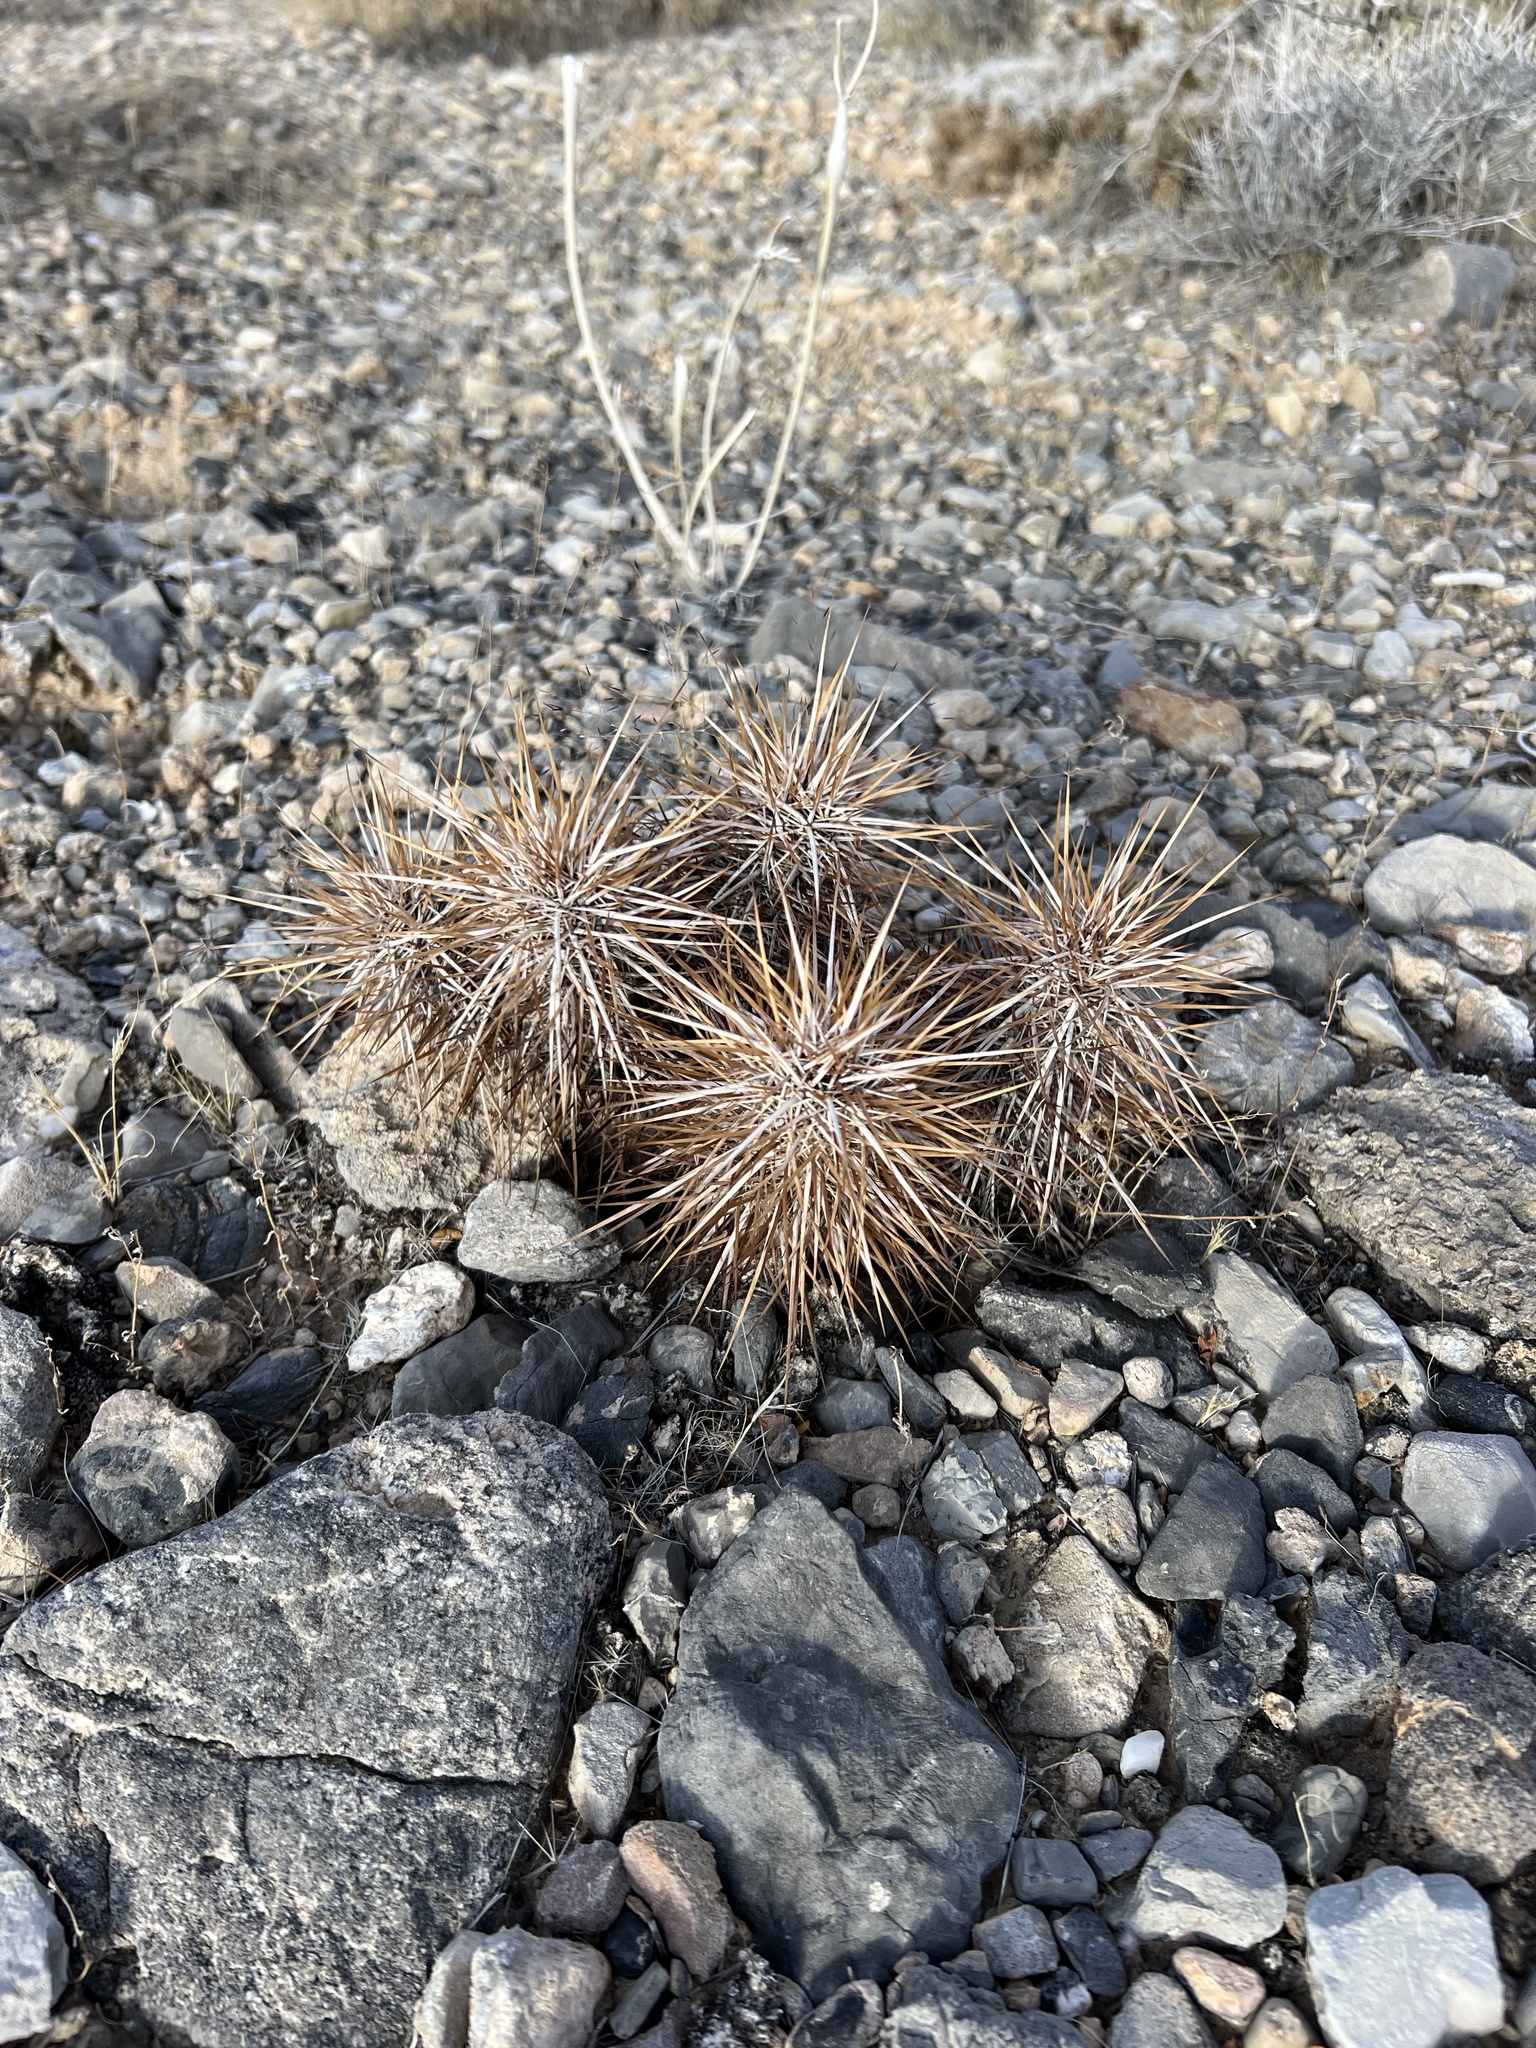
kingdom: Plantae
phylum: Tracheophyta
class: Magnoliopsida
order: Caryophyllales
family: Cactaceae
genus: Echinocereus
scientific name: Echinocereus engelmannii
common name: Engelmann's hedgehog cactus
